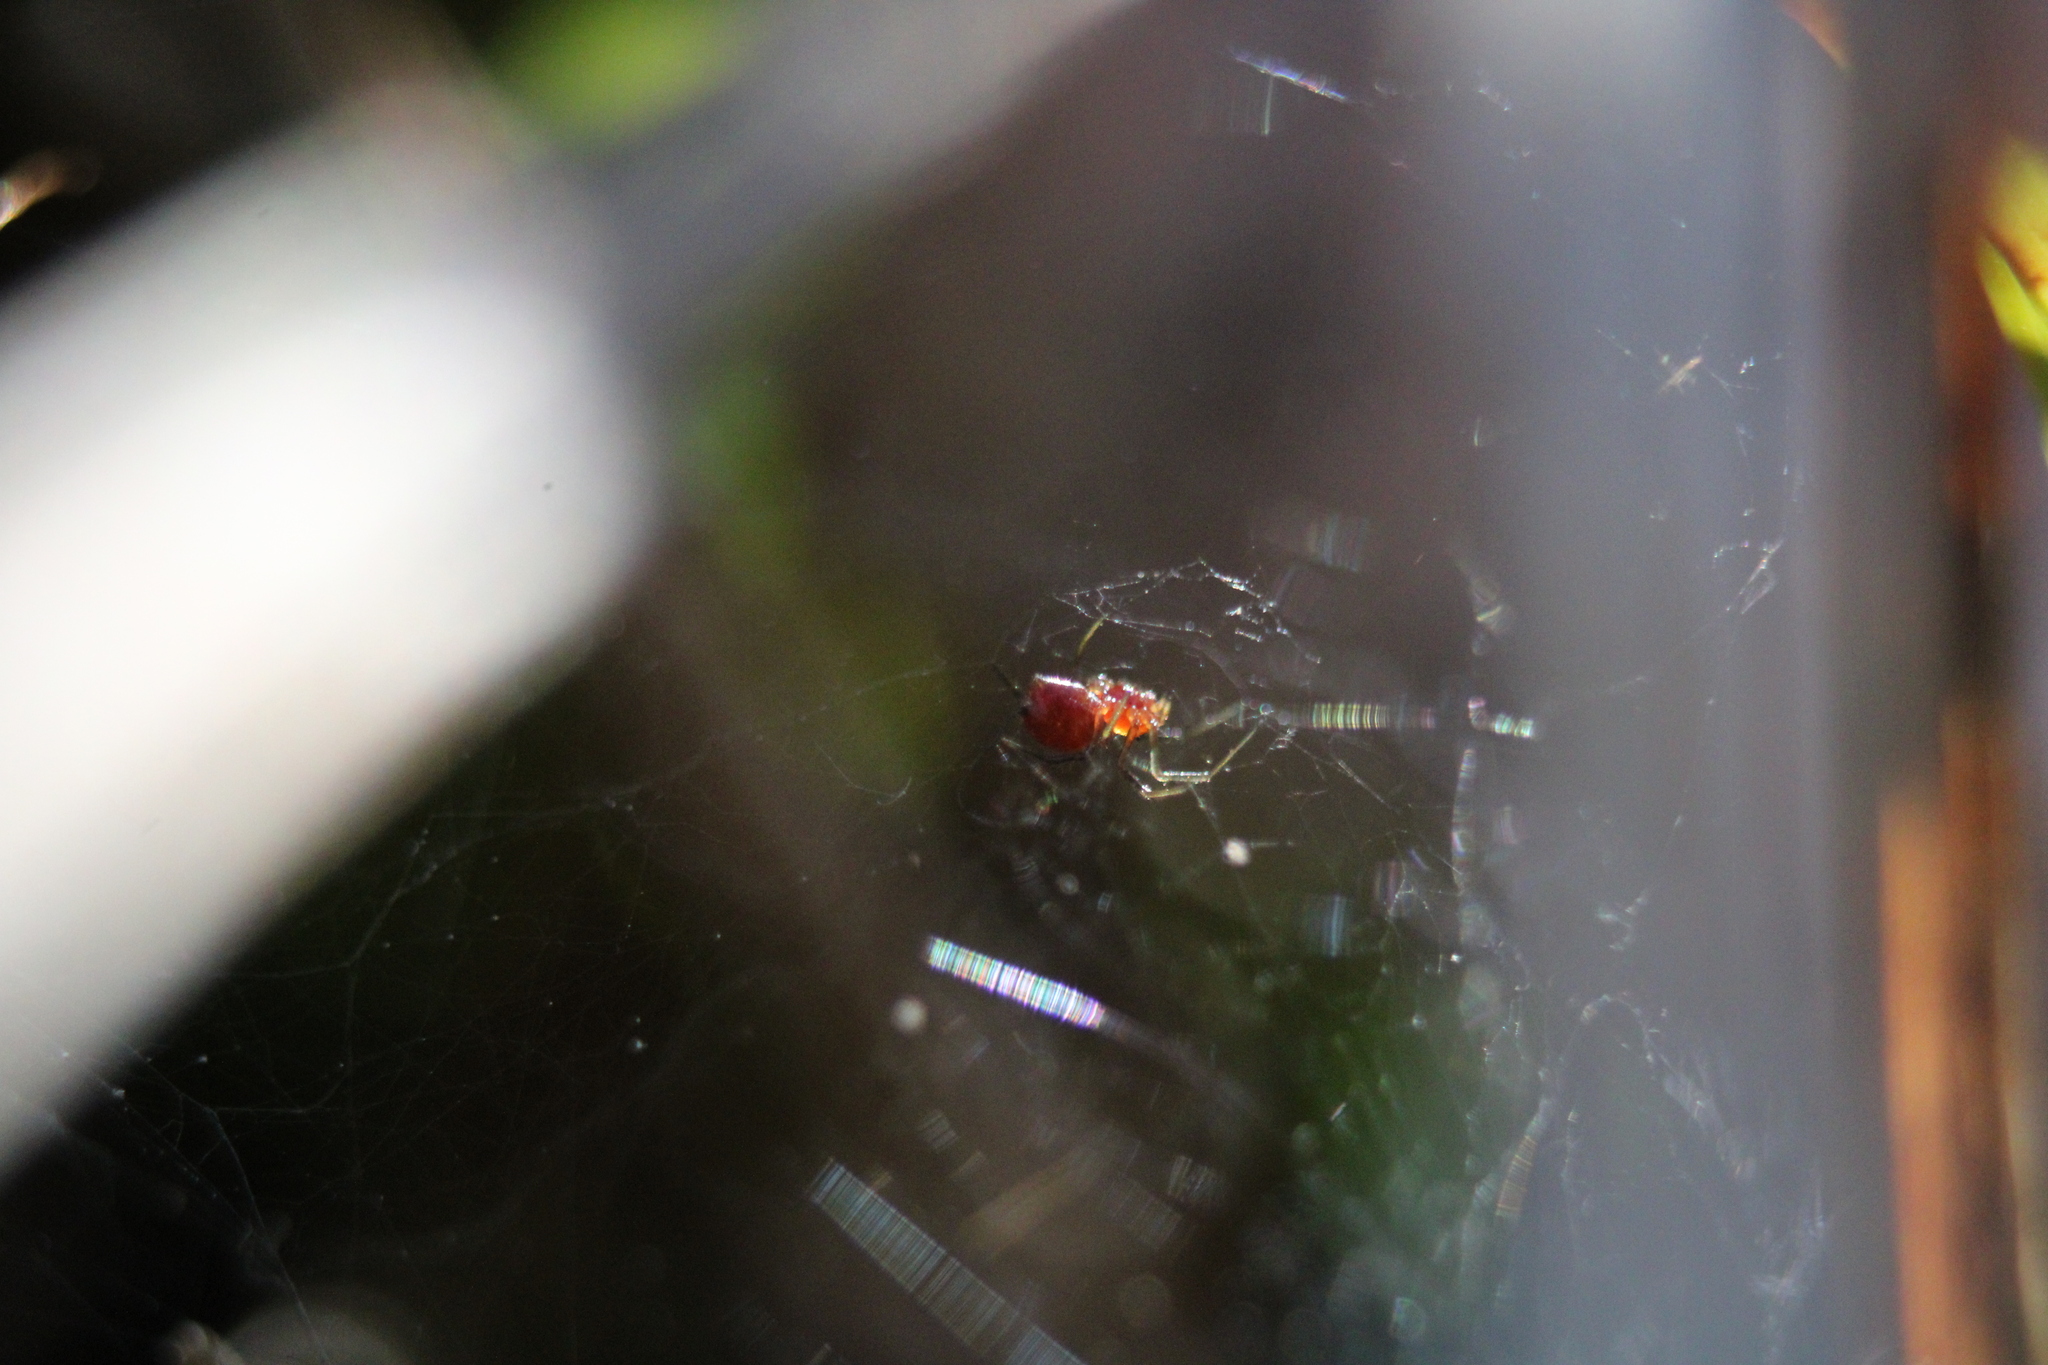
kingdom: Animalia
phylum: Arthropoda
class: Arachnida
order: Araneae
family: Linyphiidae
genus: Florinda
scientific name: Florinda coccinea
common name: Black-tailed red sheetweaver
